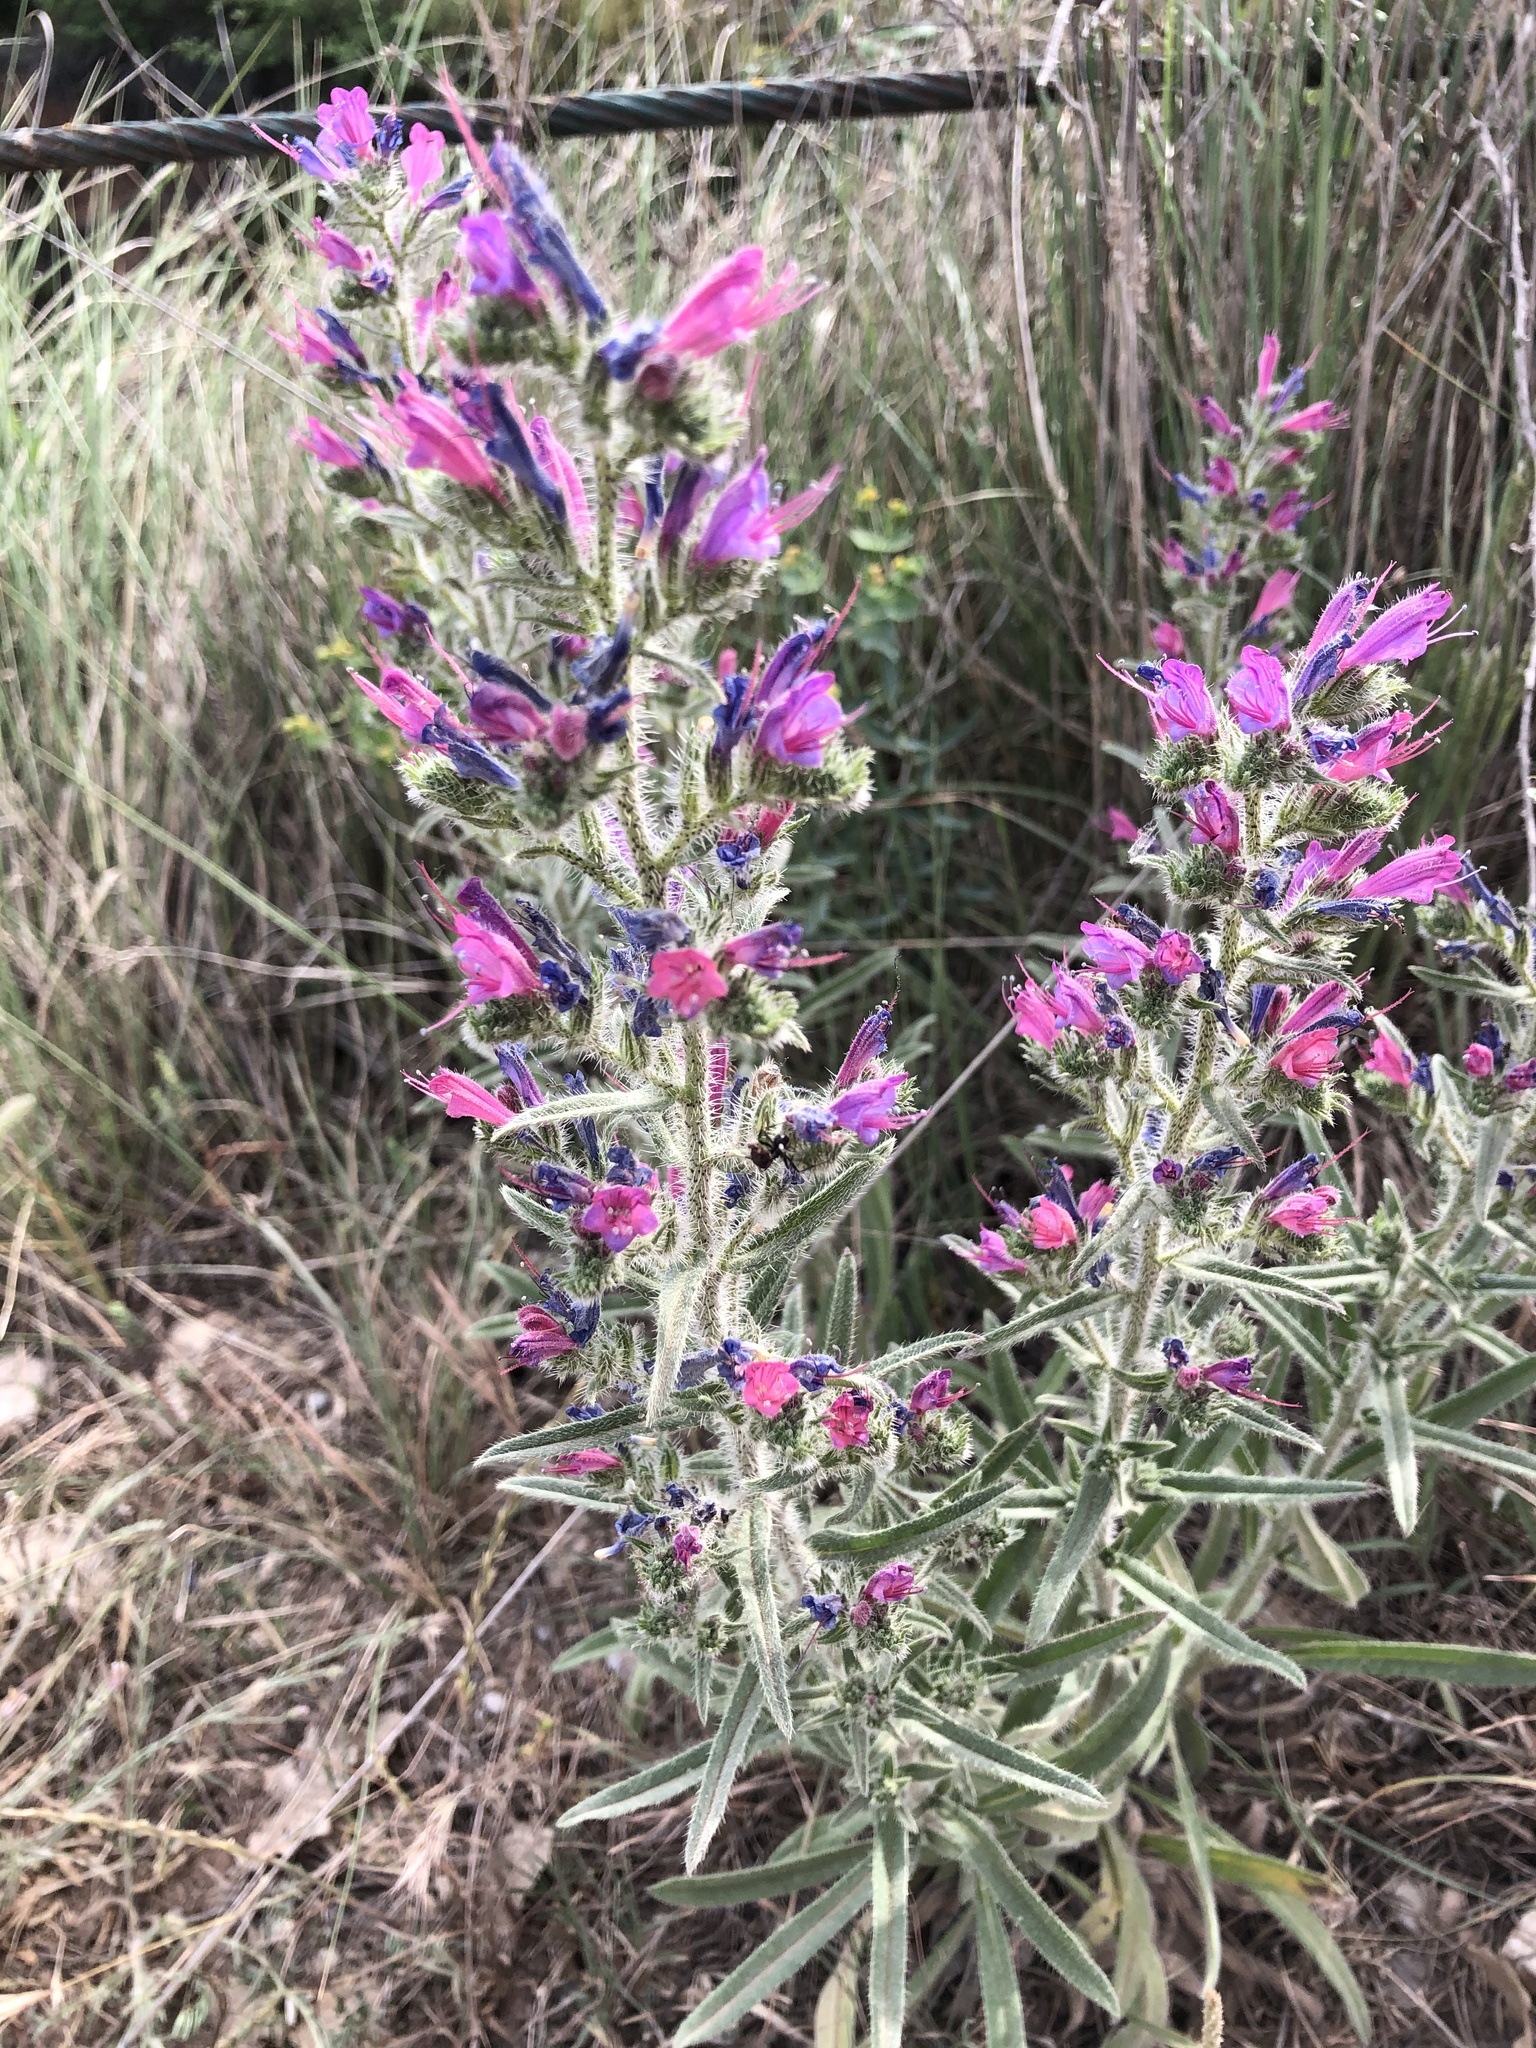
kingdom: Plantae
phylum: Tracheophyta
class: Magnoliopsida
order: Boraginales
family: Boraginaceae
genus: Echium
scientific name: Echium vulgare
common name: Common viper's bugloss
